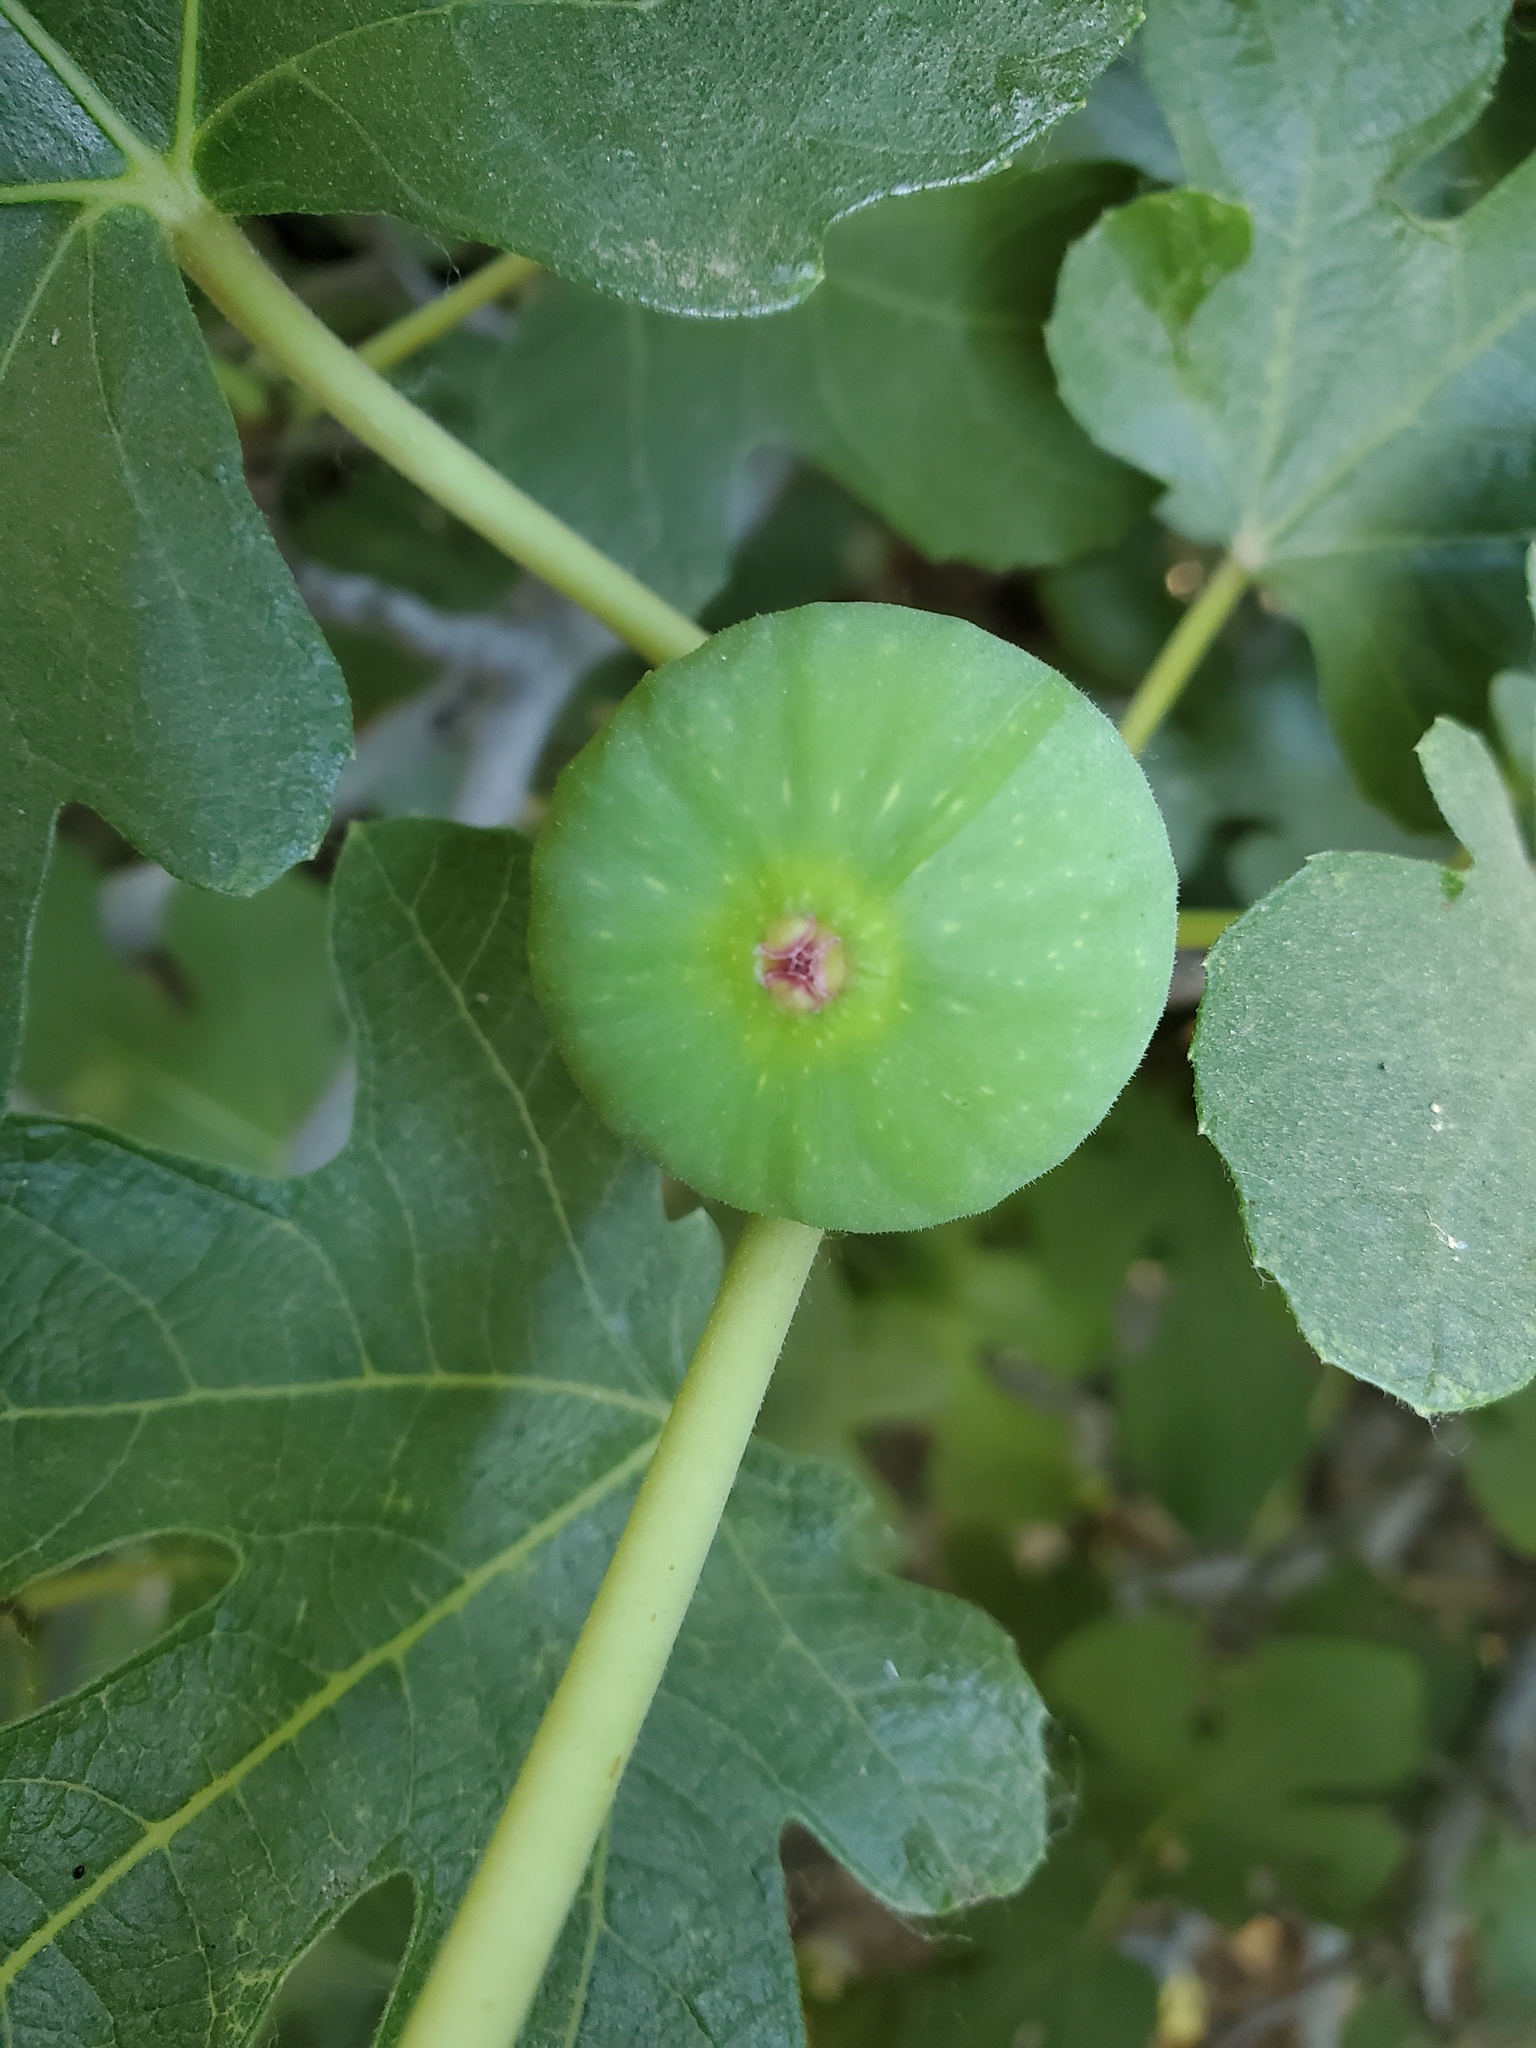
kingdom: Plantae
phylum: Tracheophyta
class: Magnoliopsida
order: Rosales
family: Moraceae
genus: Ficus
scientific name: Ficus carica
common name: Fig
